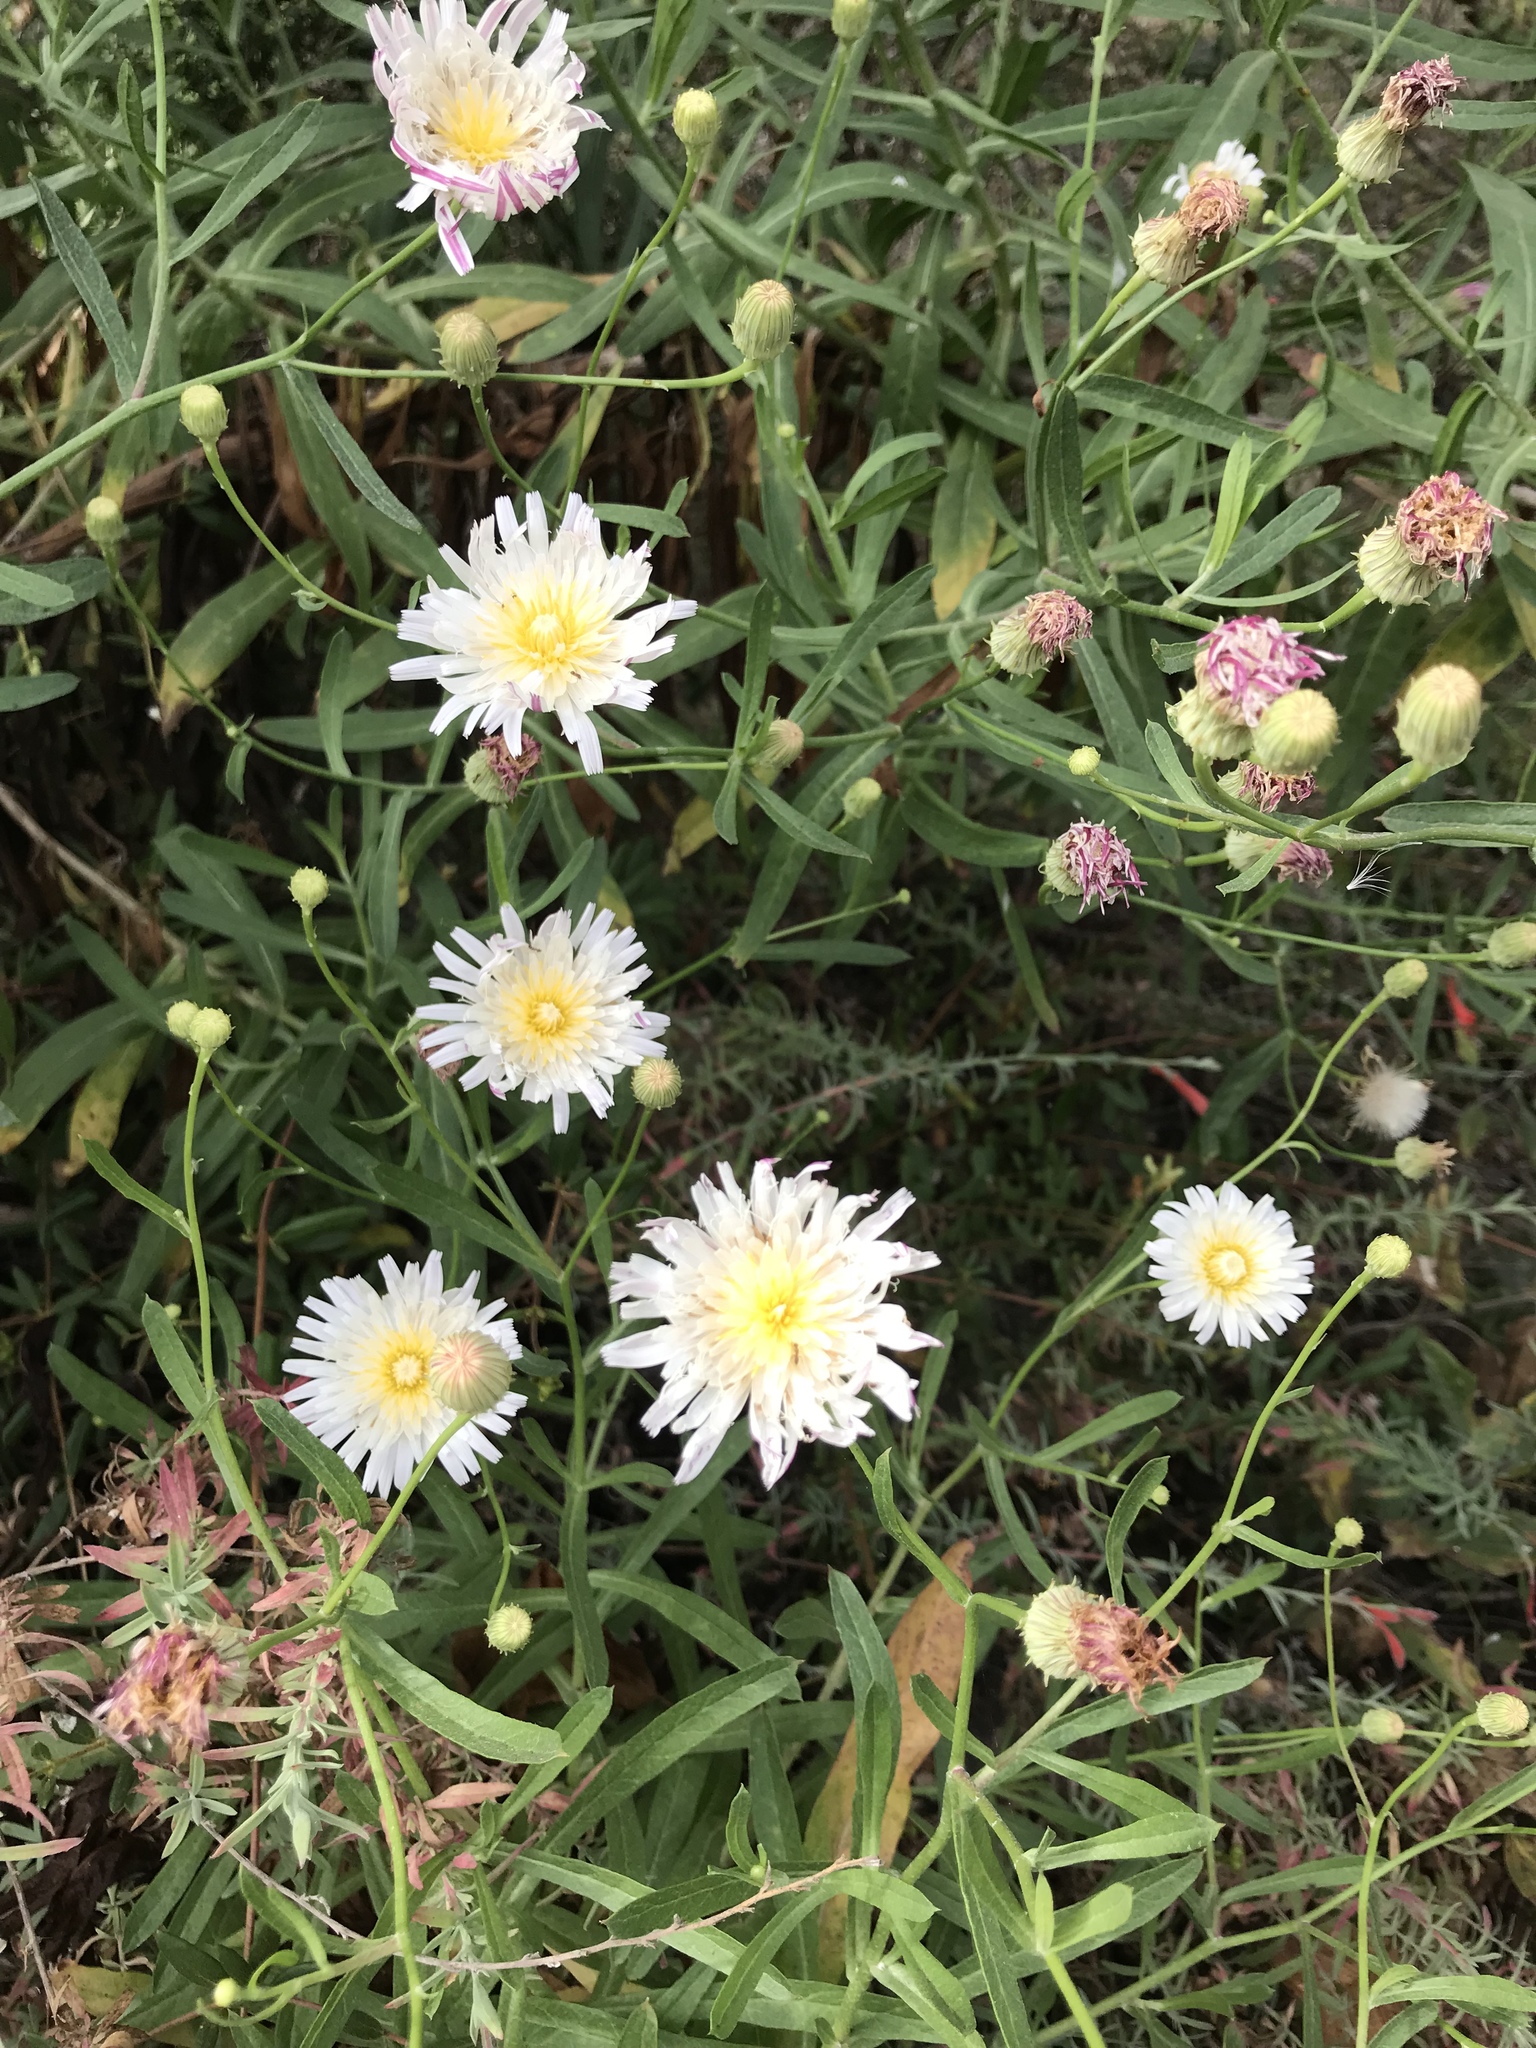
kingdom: Plantae
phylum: Tracheophyta
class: Magnoliopsida
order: Asterales
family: Asteraceae
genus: Malacothrix
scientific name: Malacothrix saxatilis
